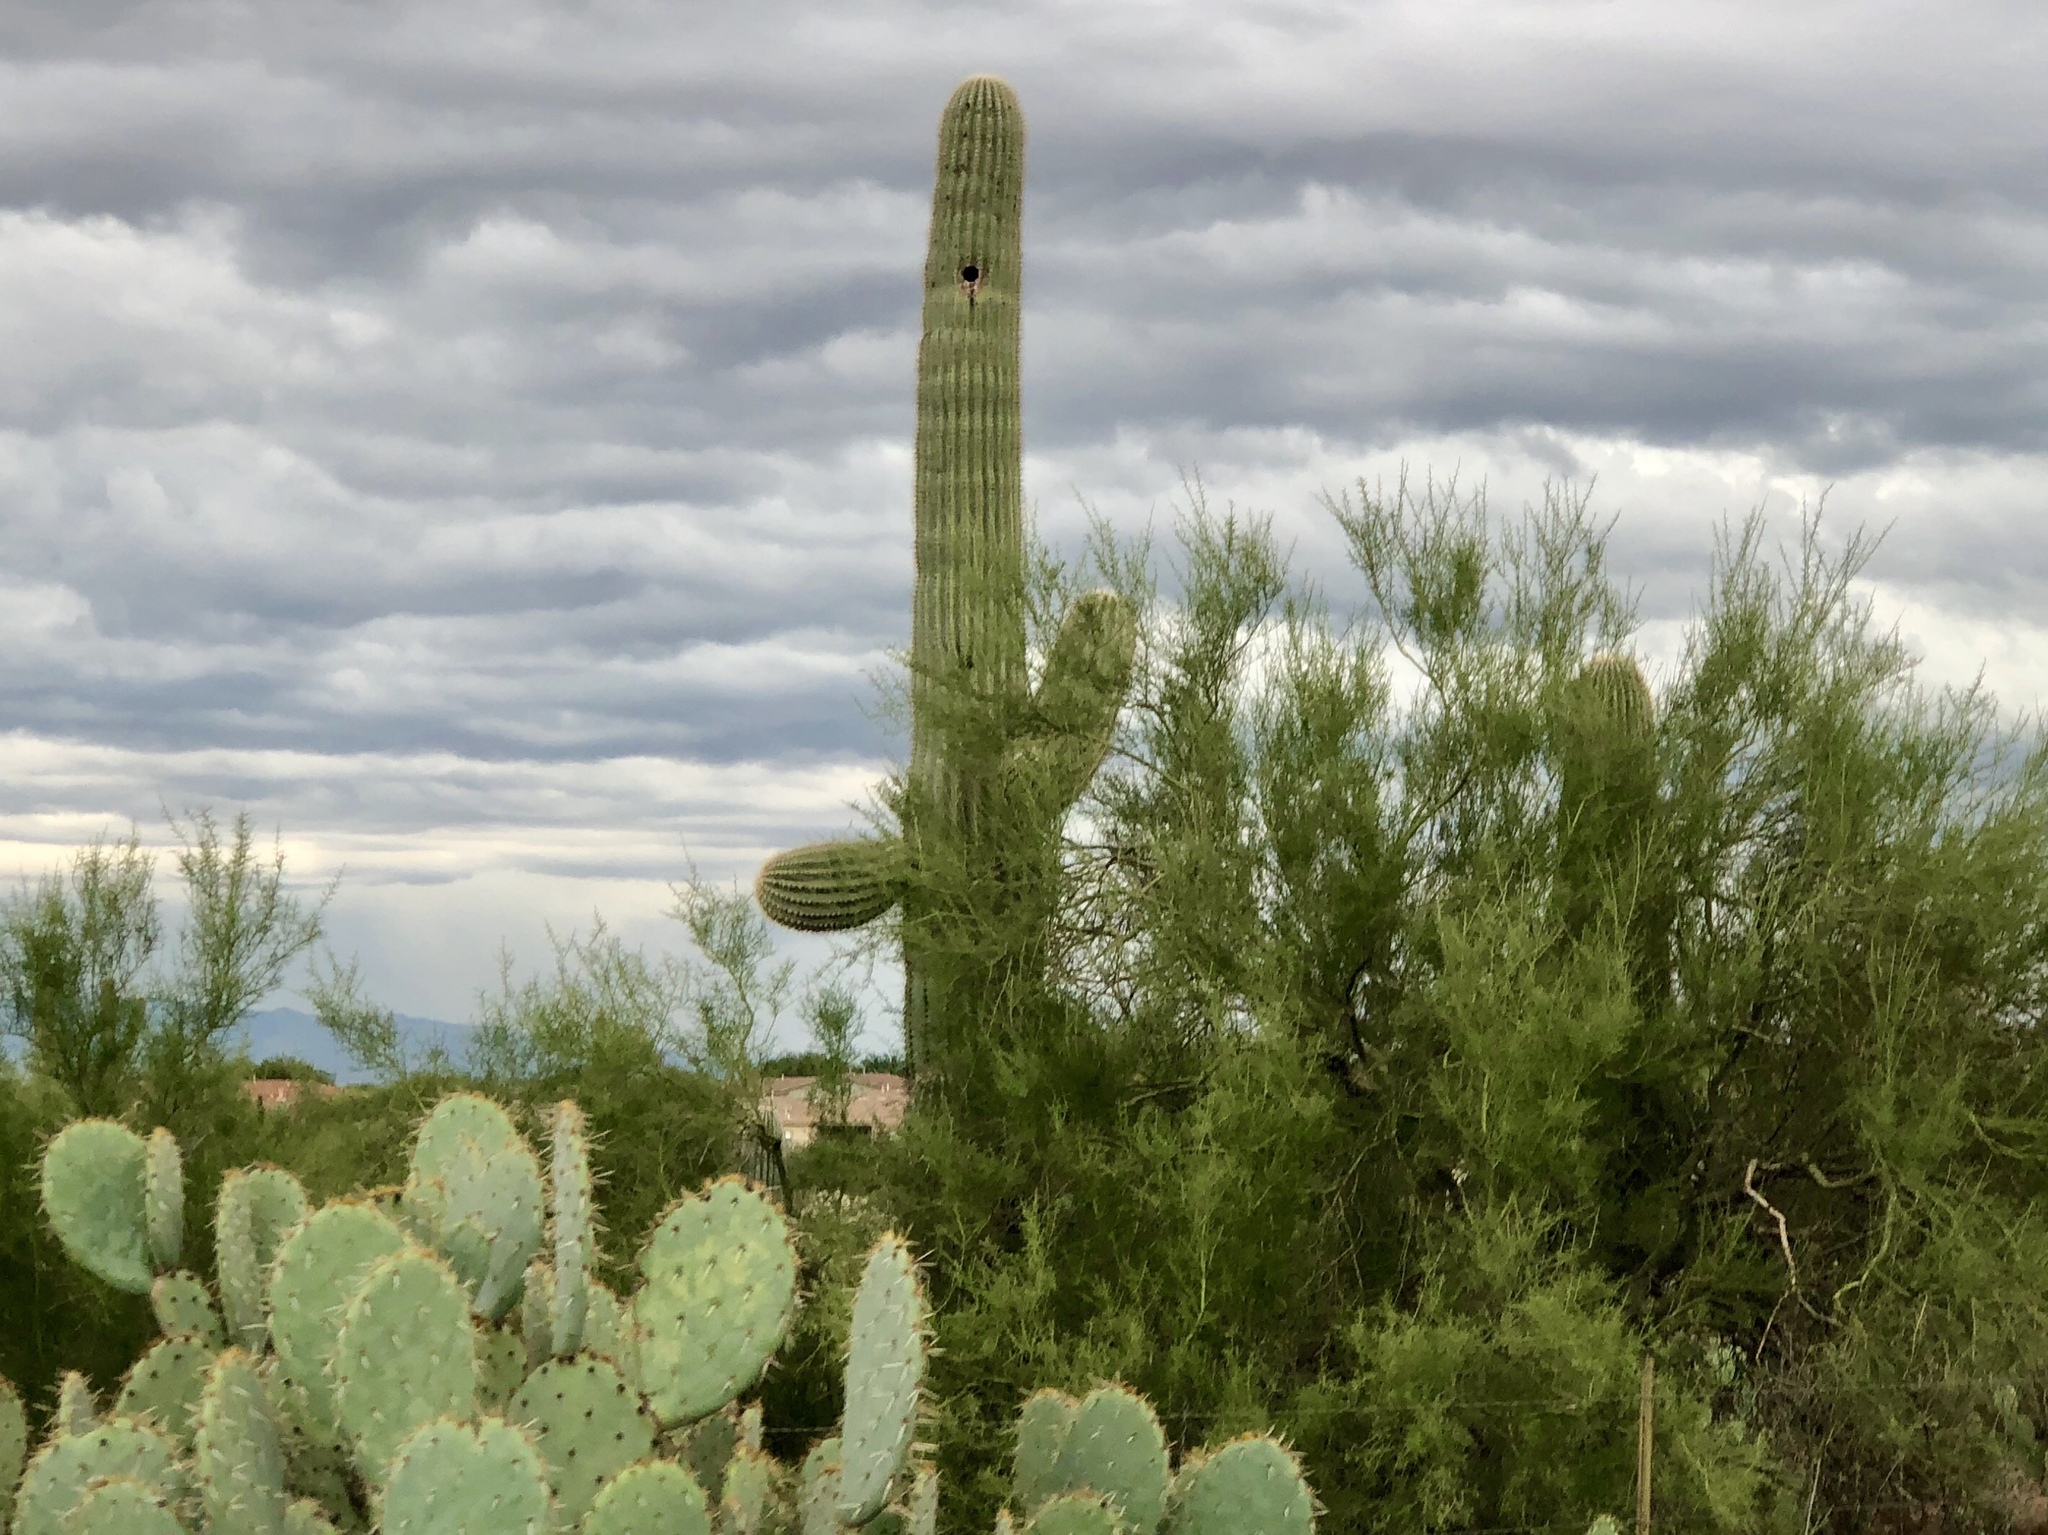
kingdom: Plantae
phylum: Tracheophyta
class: Magnoliopsida
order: Caryophyllales
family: Cactaceae
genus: Carnegiea
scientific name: Carnegiea gigantea
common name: Saguaro
